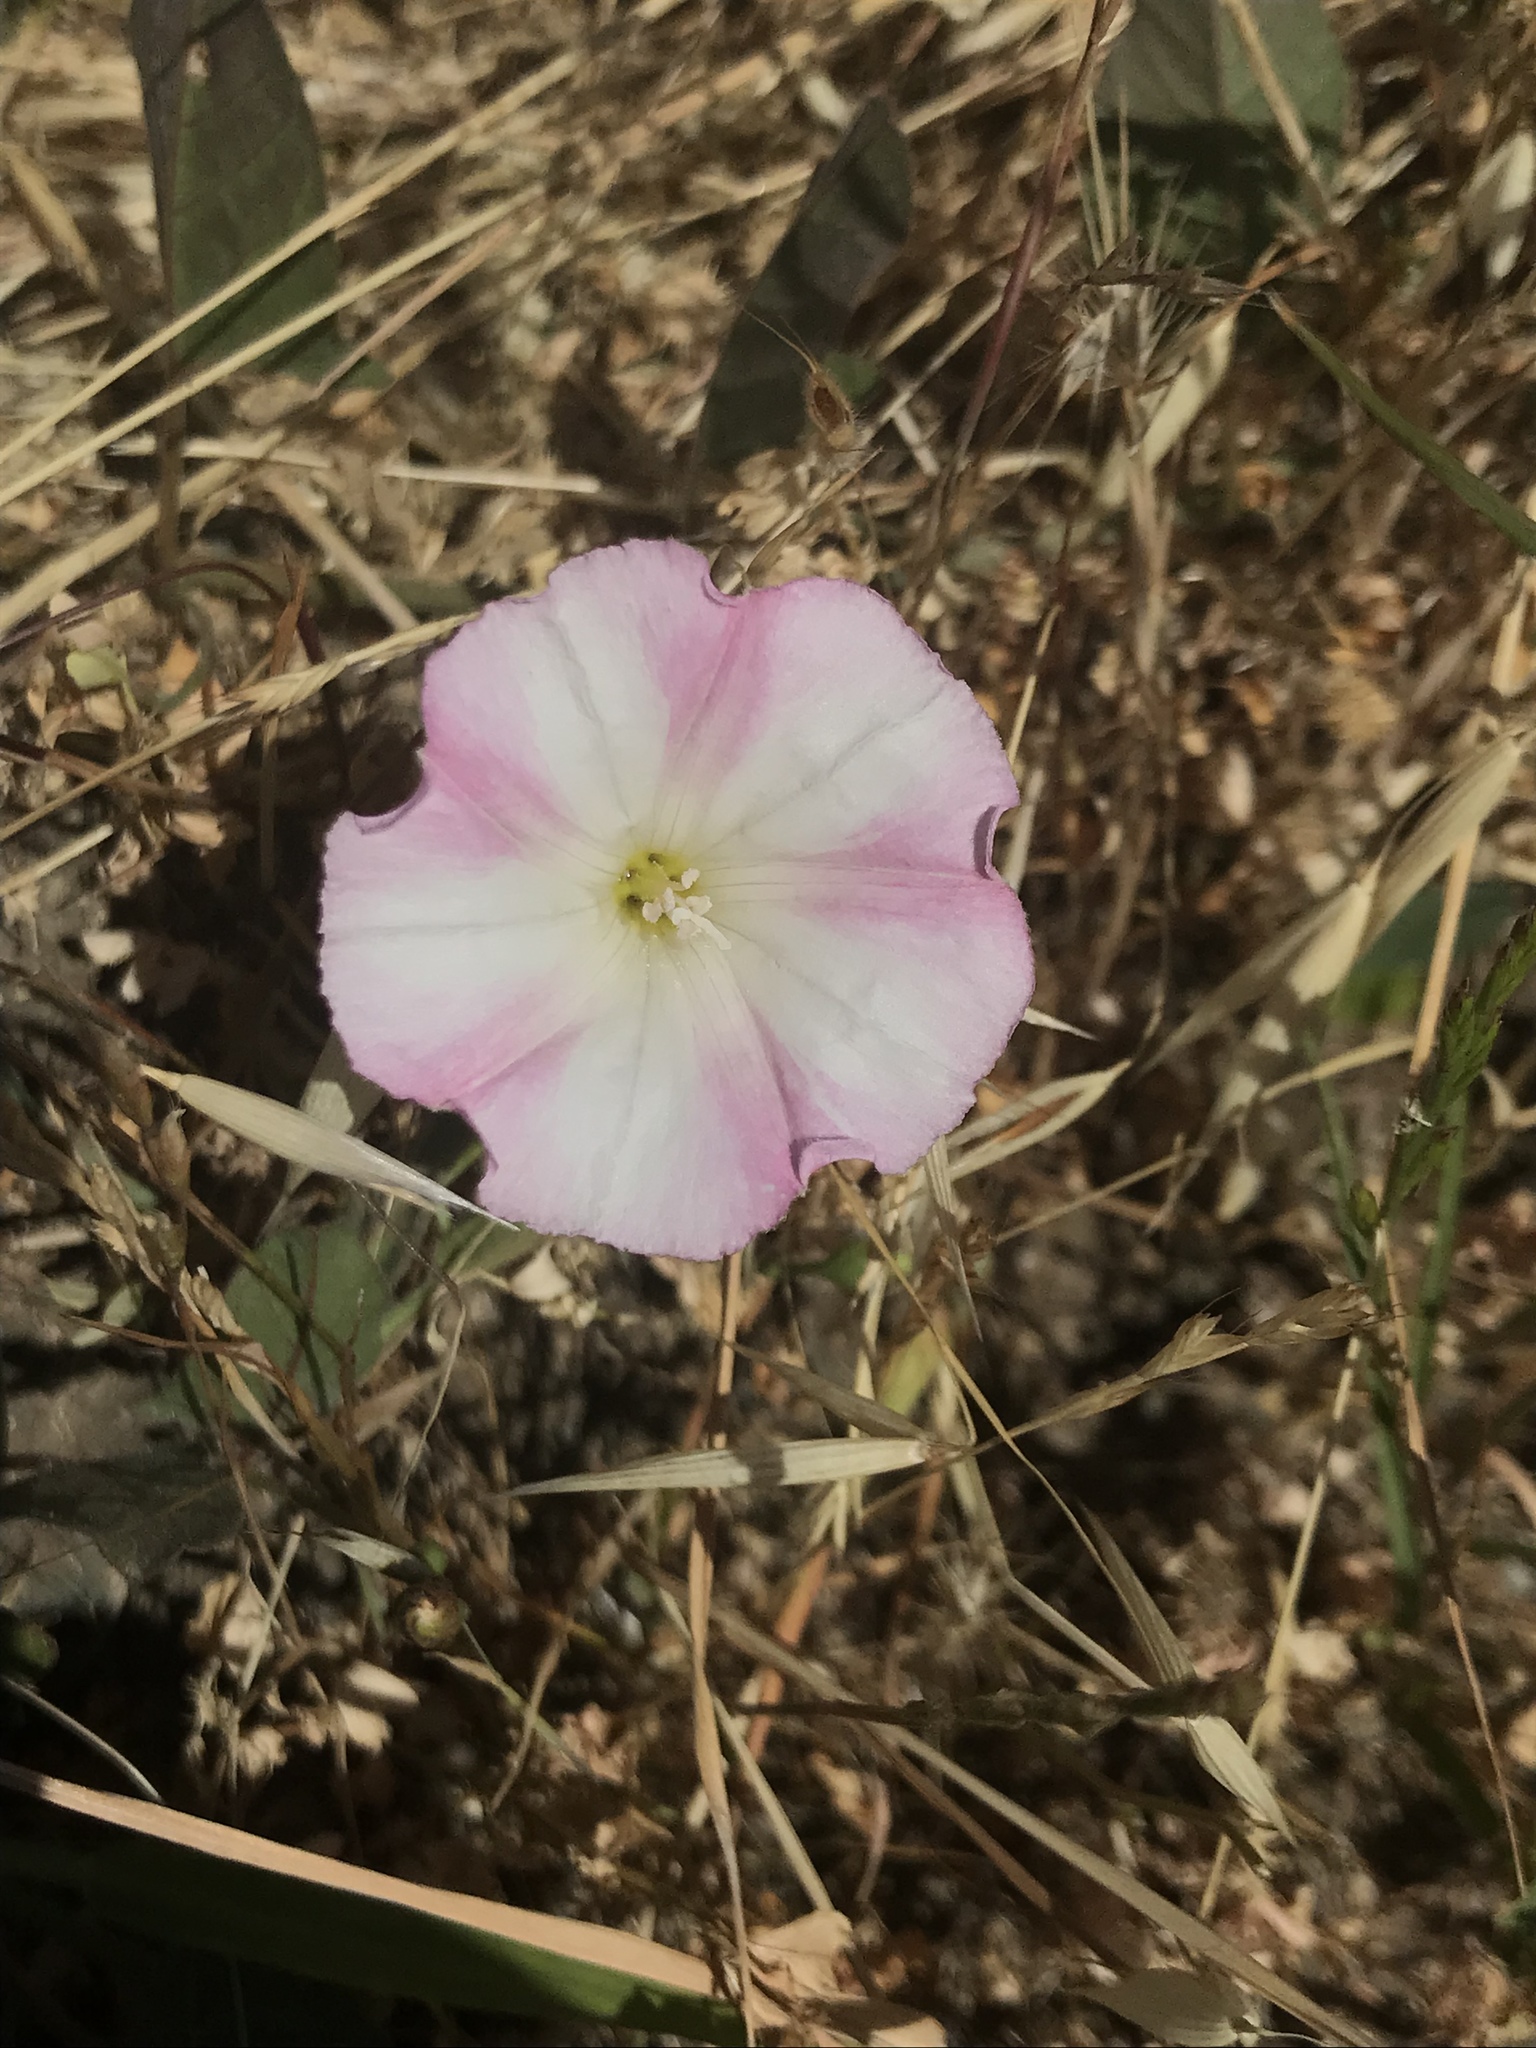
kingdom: Plantae
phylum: Tracheophyta
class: Magnoliopsida
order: Solanales
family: Convolvulaceae
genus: Convolvulus
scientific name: Convolvulus arvensis
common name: Field bindweed
